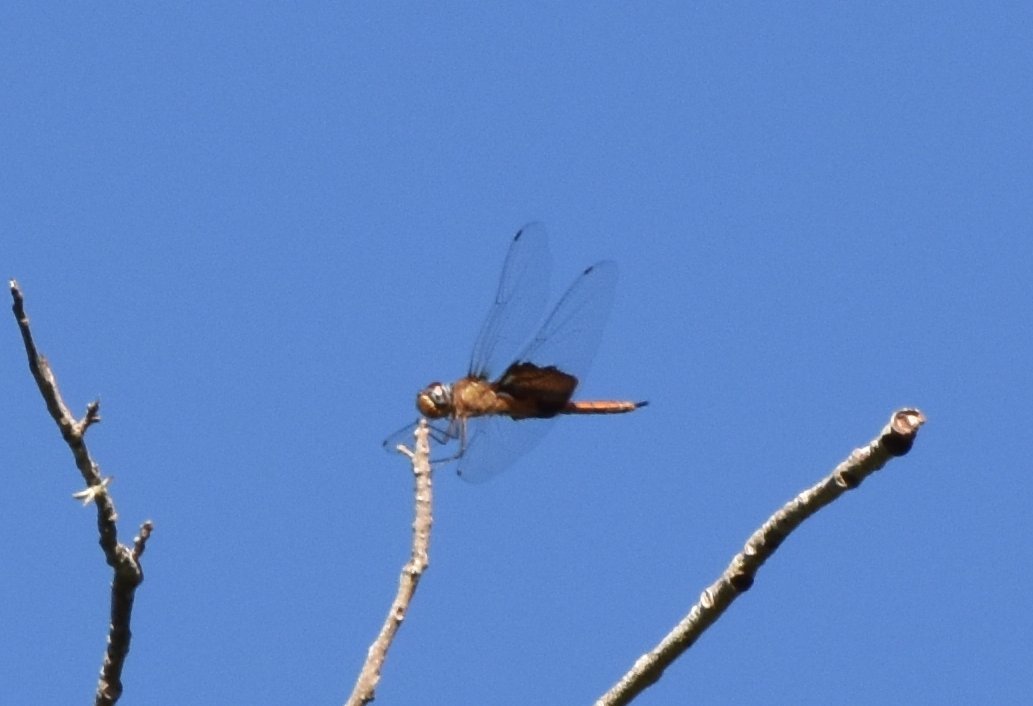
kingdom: Animalia
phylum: Arthropoda
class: Insecta
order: Odonata
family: Libellulidae
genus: Tramea
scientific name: Tramea onusta
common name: Red saddlebags
